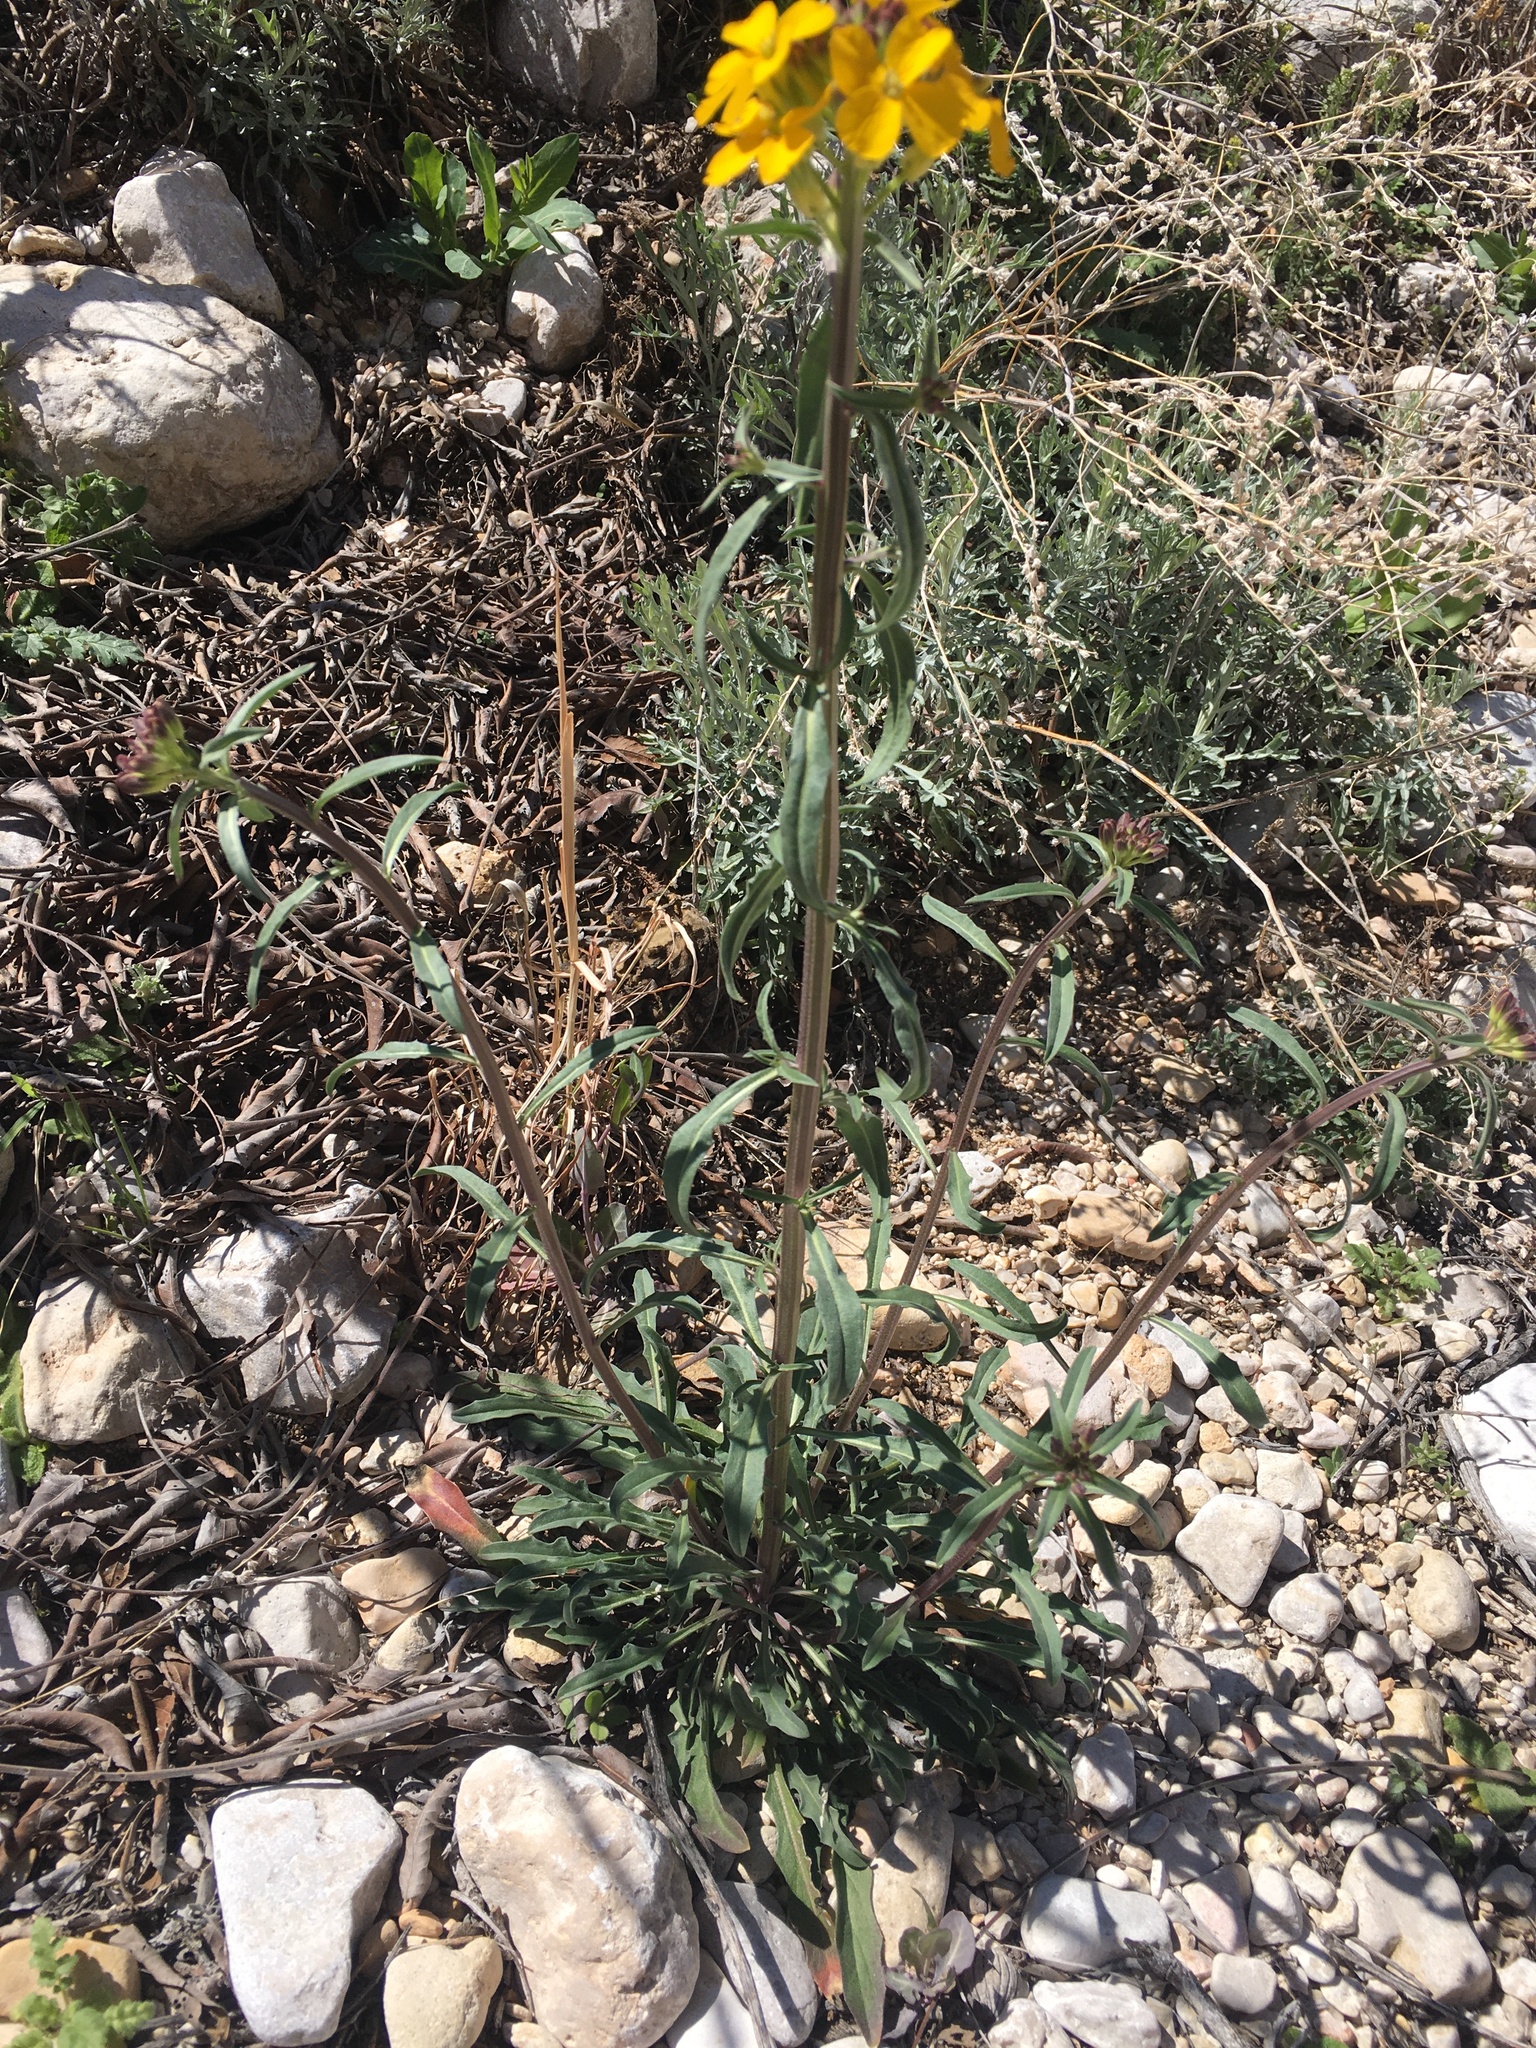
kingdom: Plantae
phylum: Tracheophyta
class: Magnoliopsida
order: Brassicales
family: Brassicaceae
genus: Erysimum
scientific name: Erysimum capitatum
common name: Western wallflower
